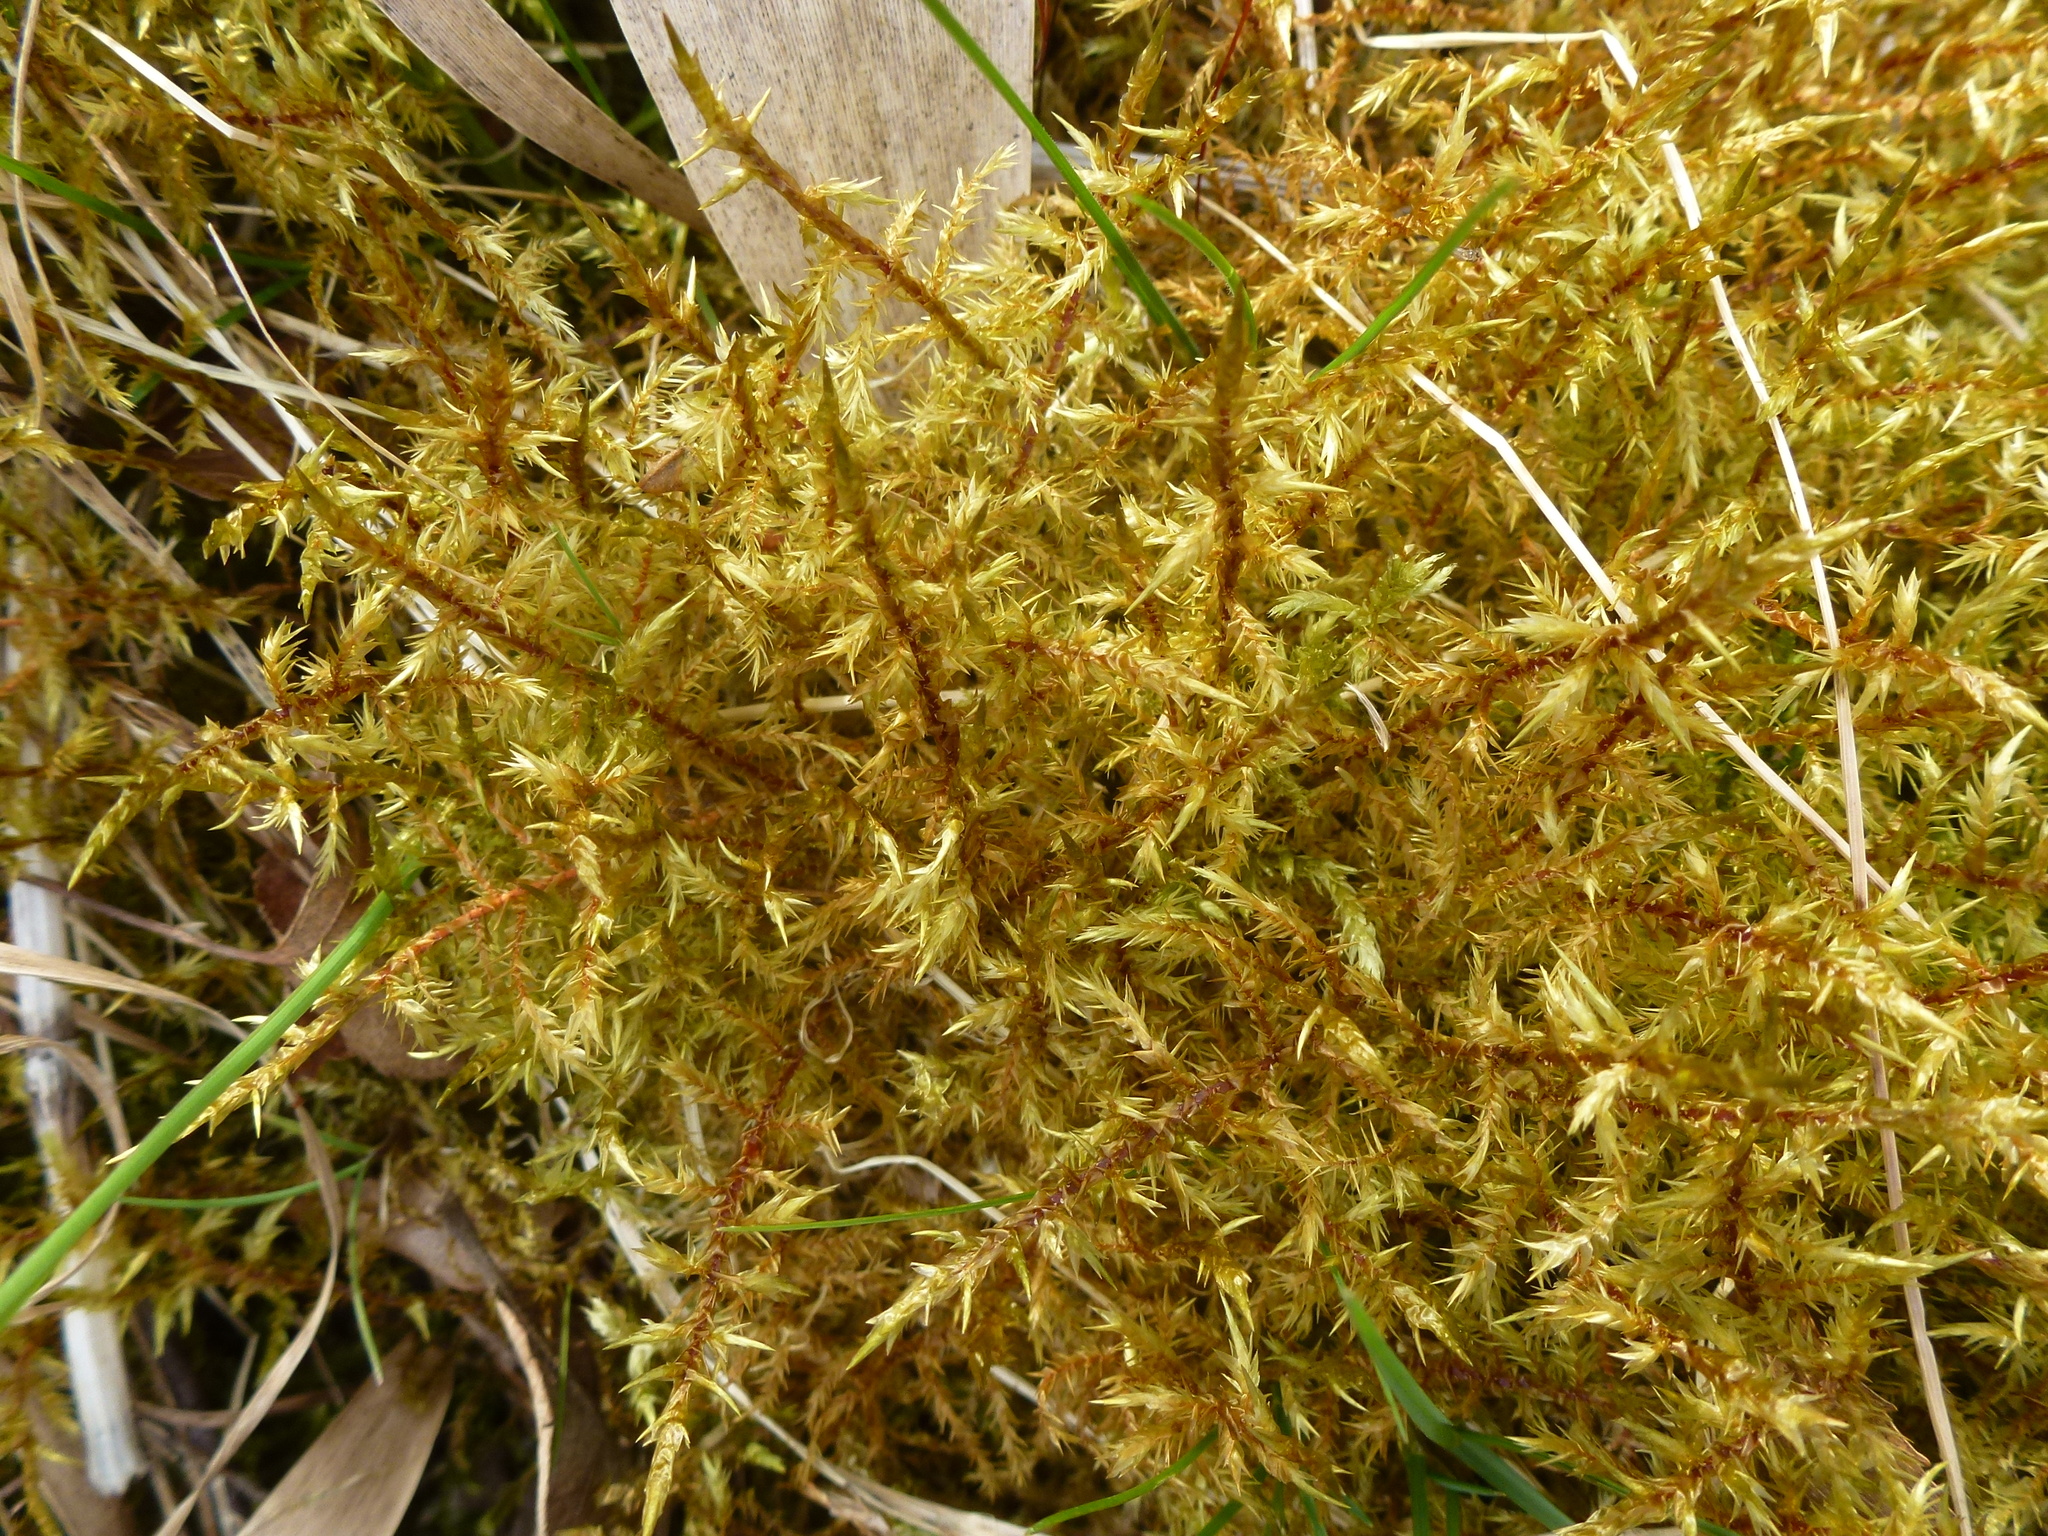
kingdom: Plantae
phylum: Bryophyta
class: Bryopsida
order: Hypnales
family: Pylaisiaceae
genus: Calliergonella
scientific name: Calliergonella cuspidata
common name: Common large wetland moss
